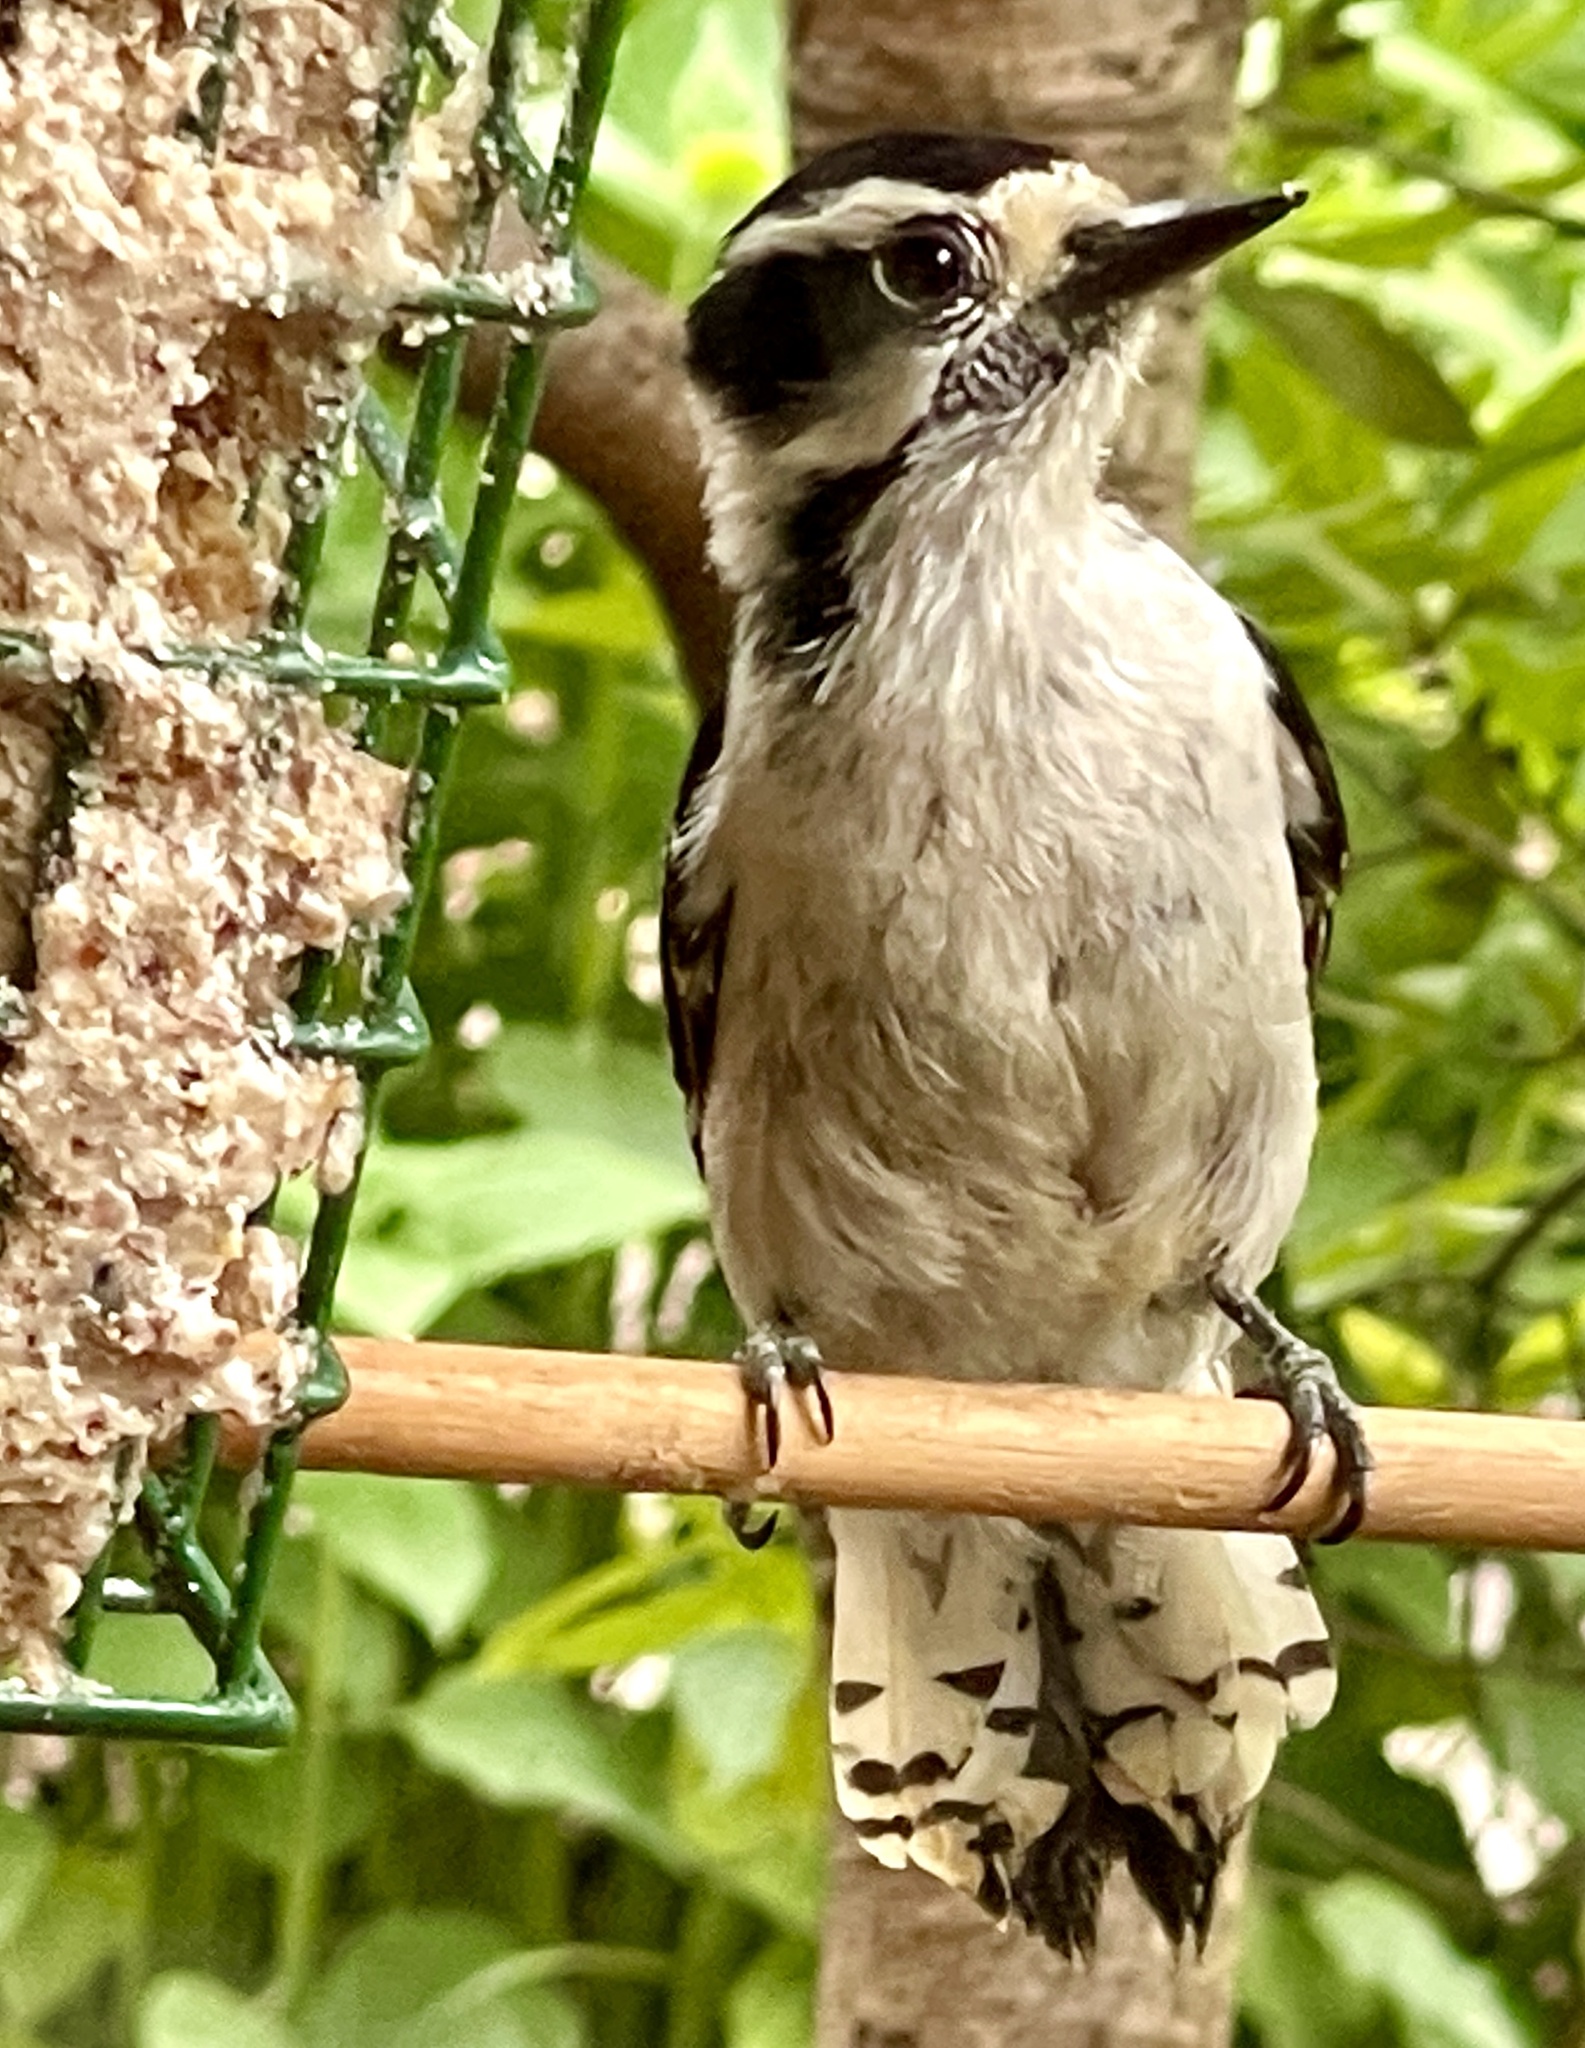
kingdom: Animalia
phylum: Chordata
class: Aves
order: Piciformes
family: Picidae
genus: Dryobates
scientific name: Dryobates pubescens
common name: Downy woodpecker
